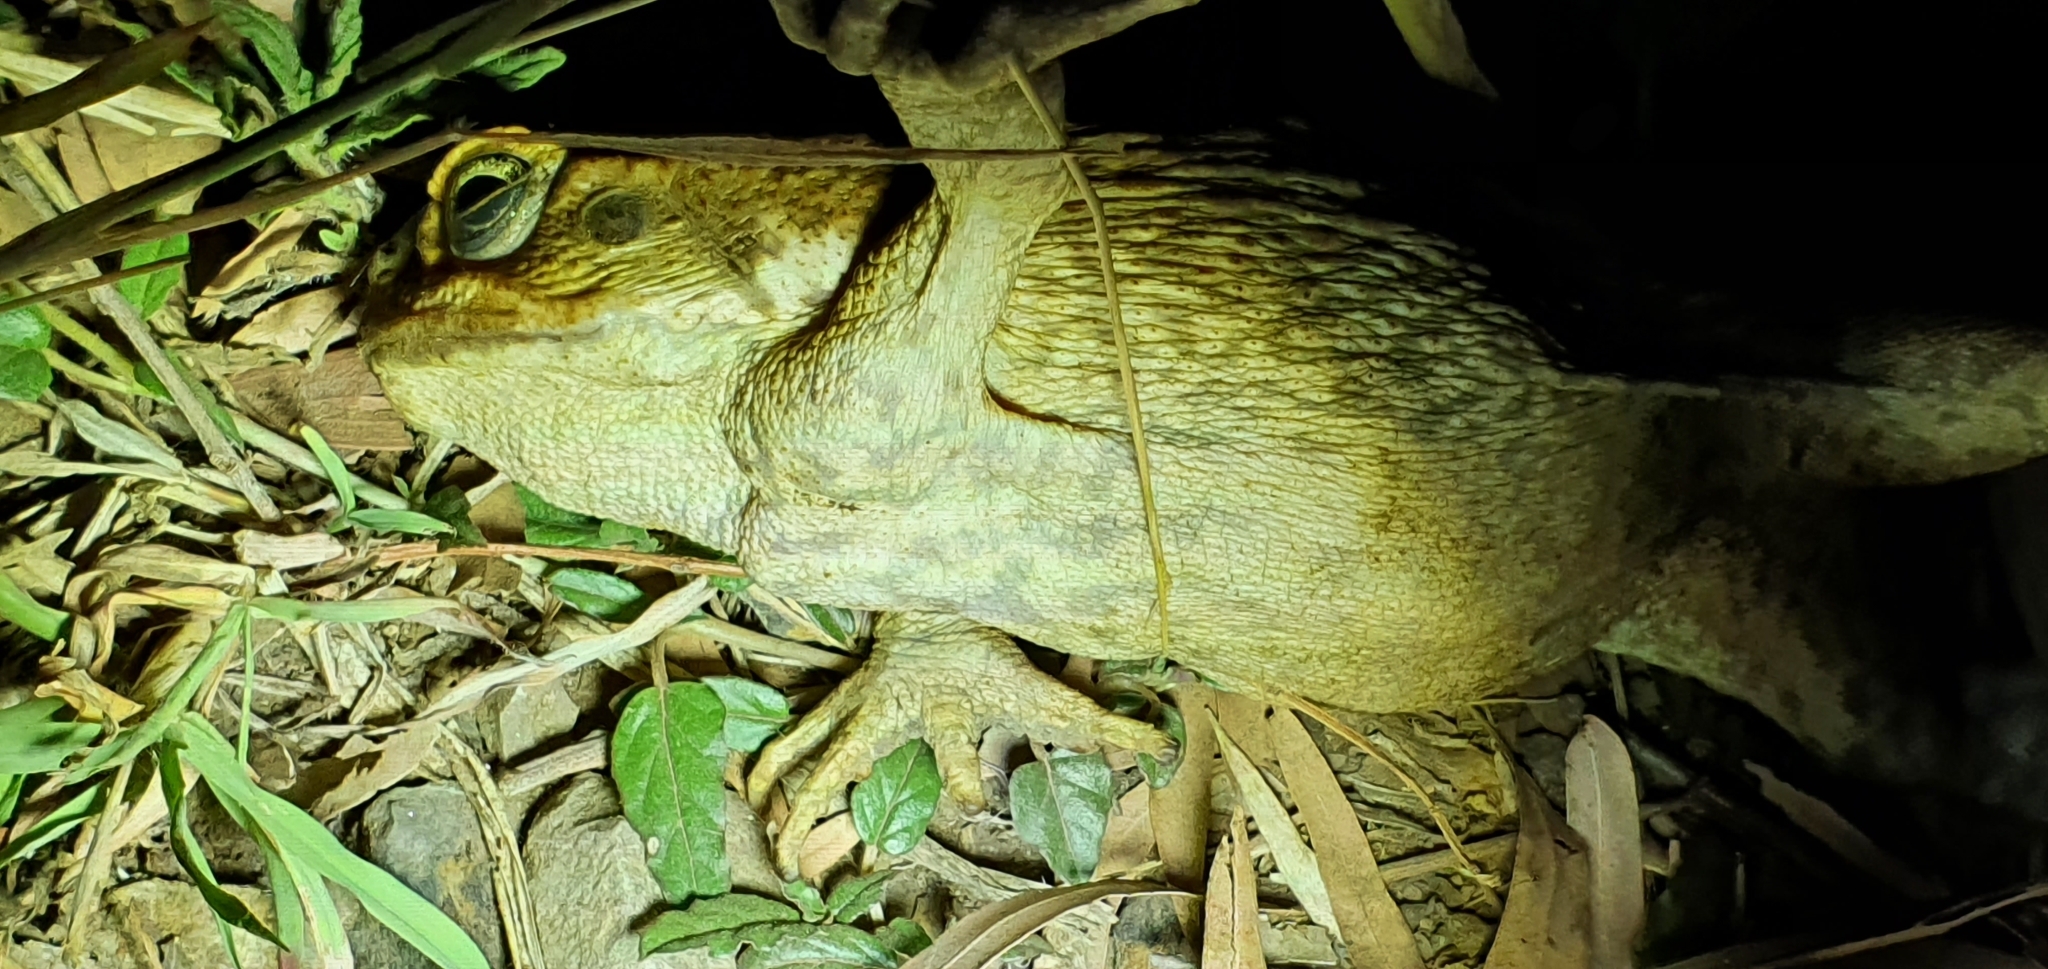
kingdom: Animalia
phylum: Chordata
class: Amphibia
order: Anura
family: Bufonidae
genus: Rhinella
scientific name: Rhinella marina
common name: Cane toad
